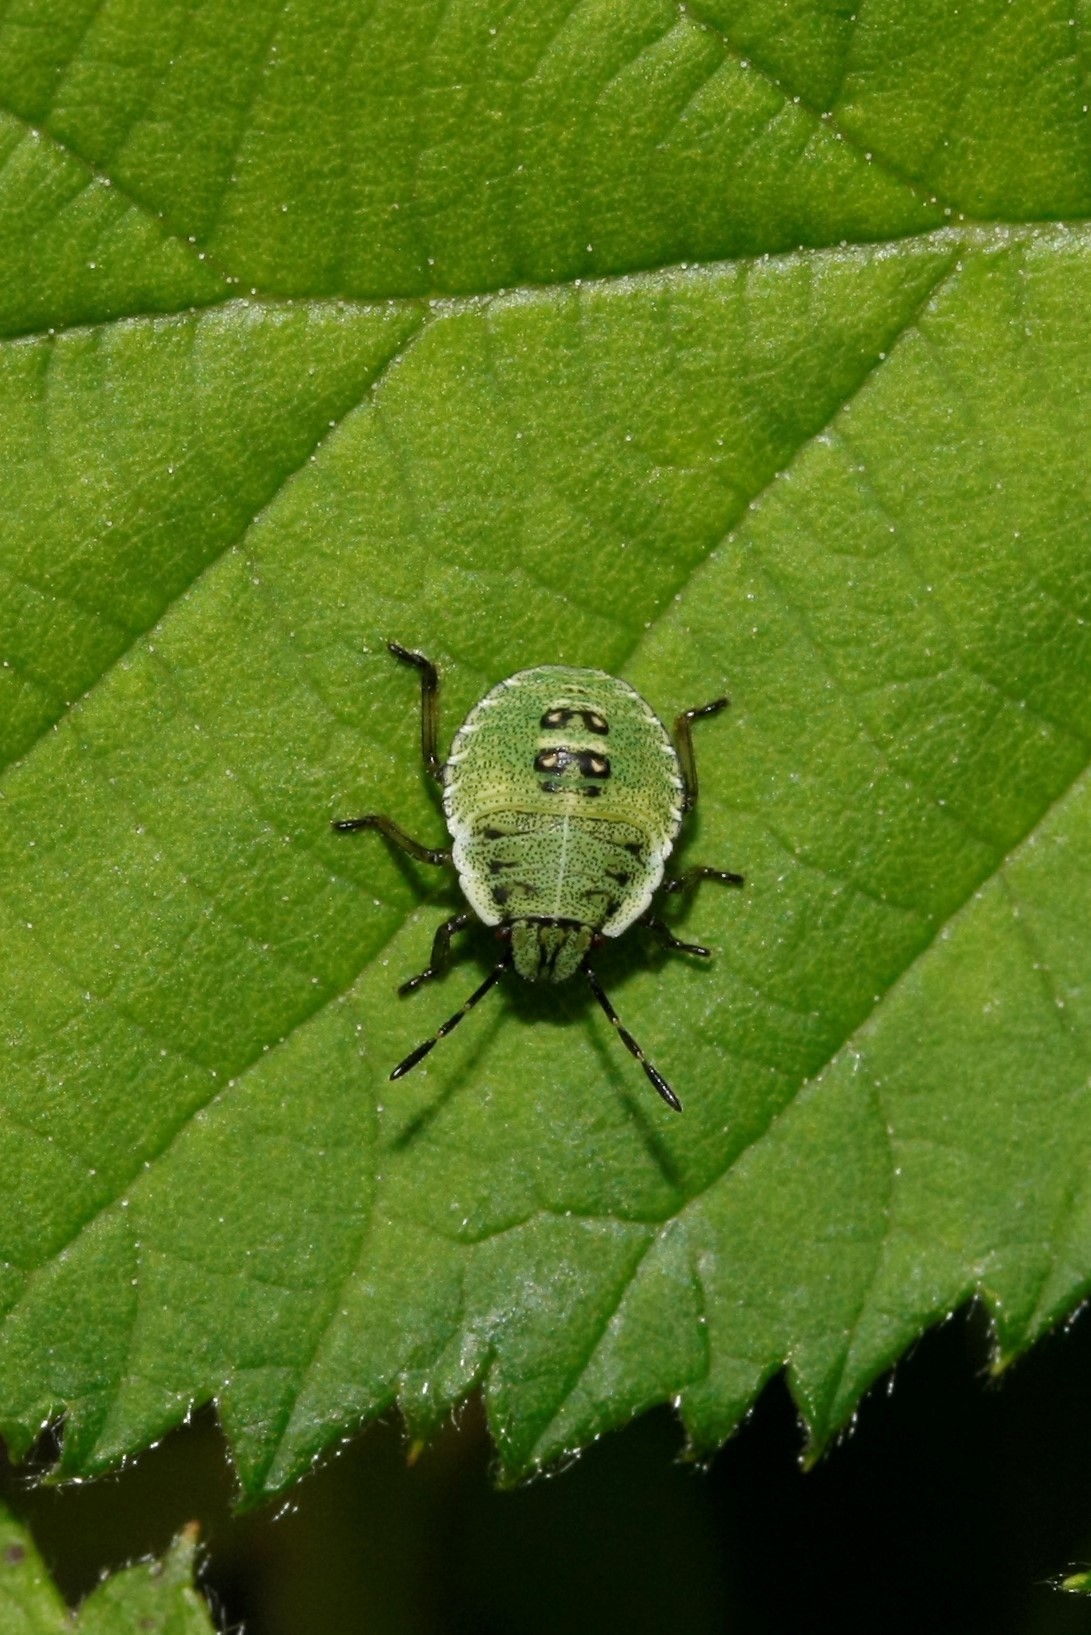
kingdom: Animalia
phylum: Arthropoda
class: Insecta
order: Hemiptera
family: Pentatomidae
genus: Palomena
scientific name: Palomena prasina
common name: Green shieldbug
